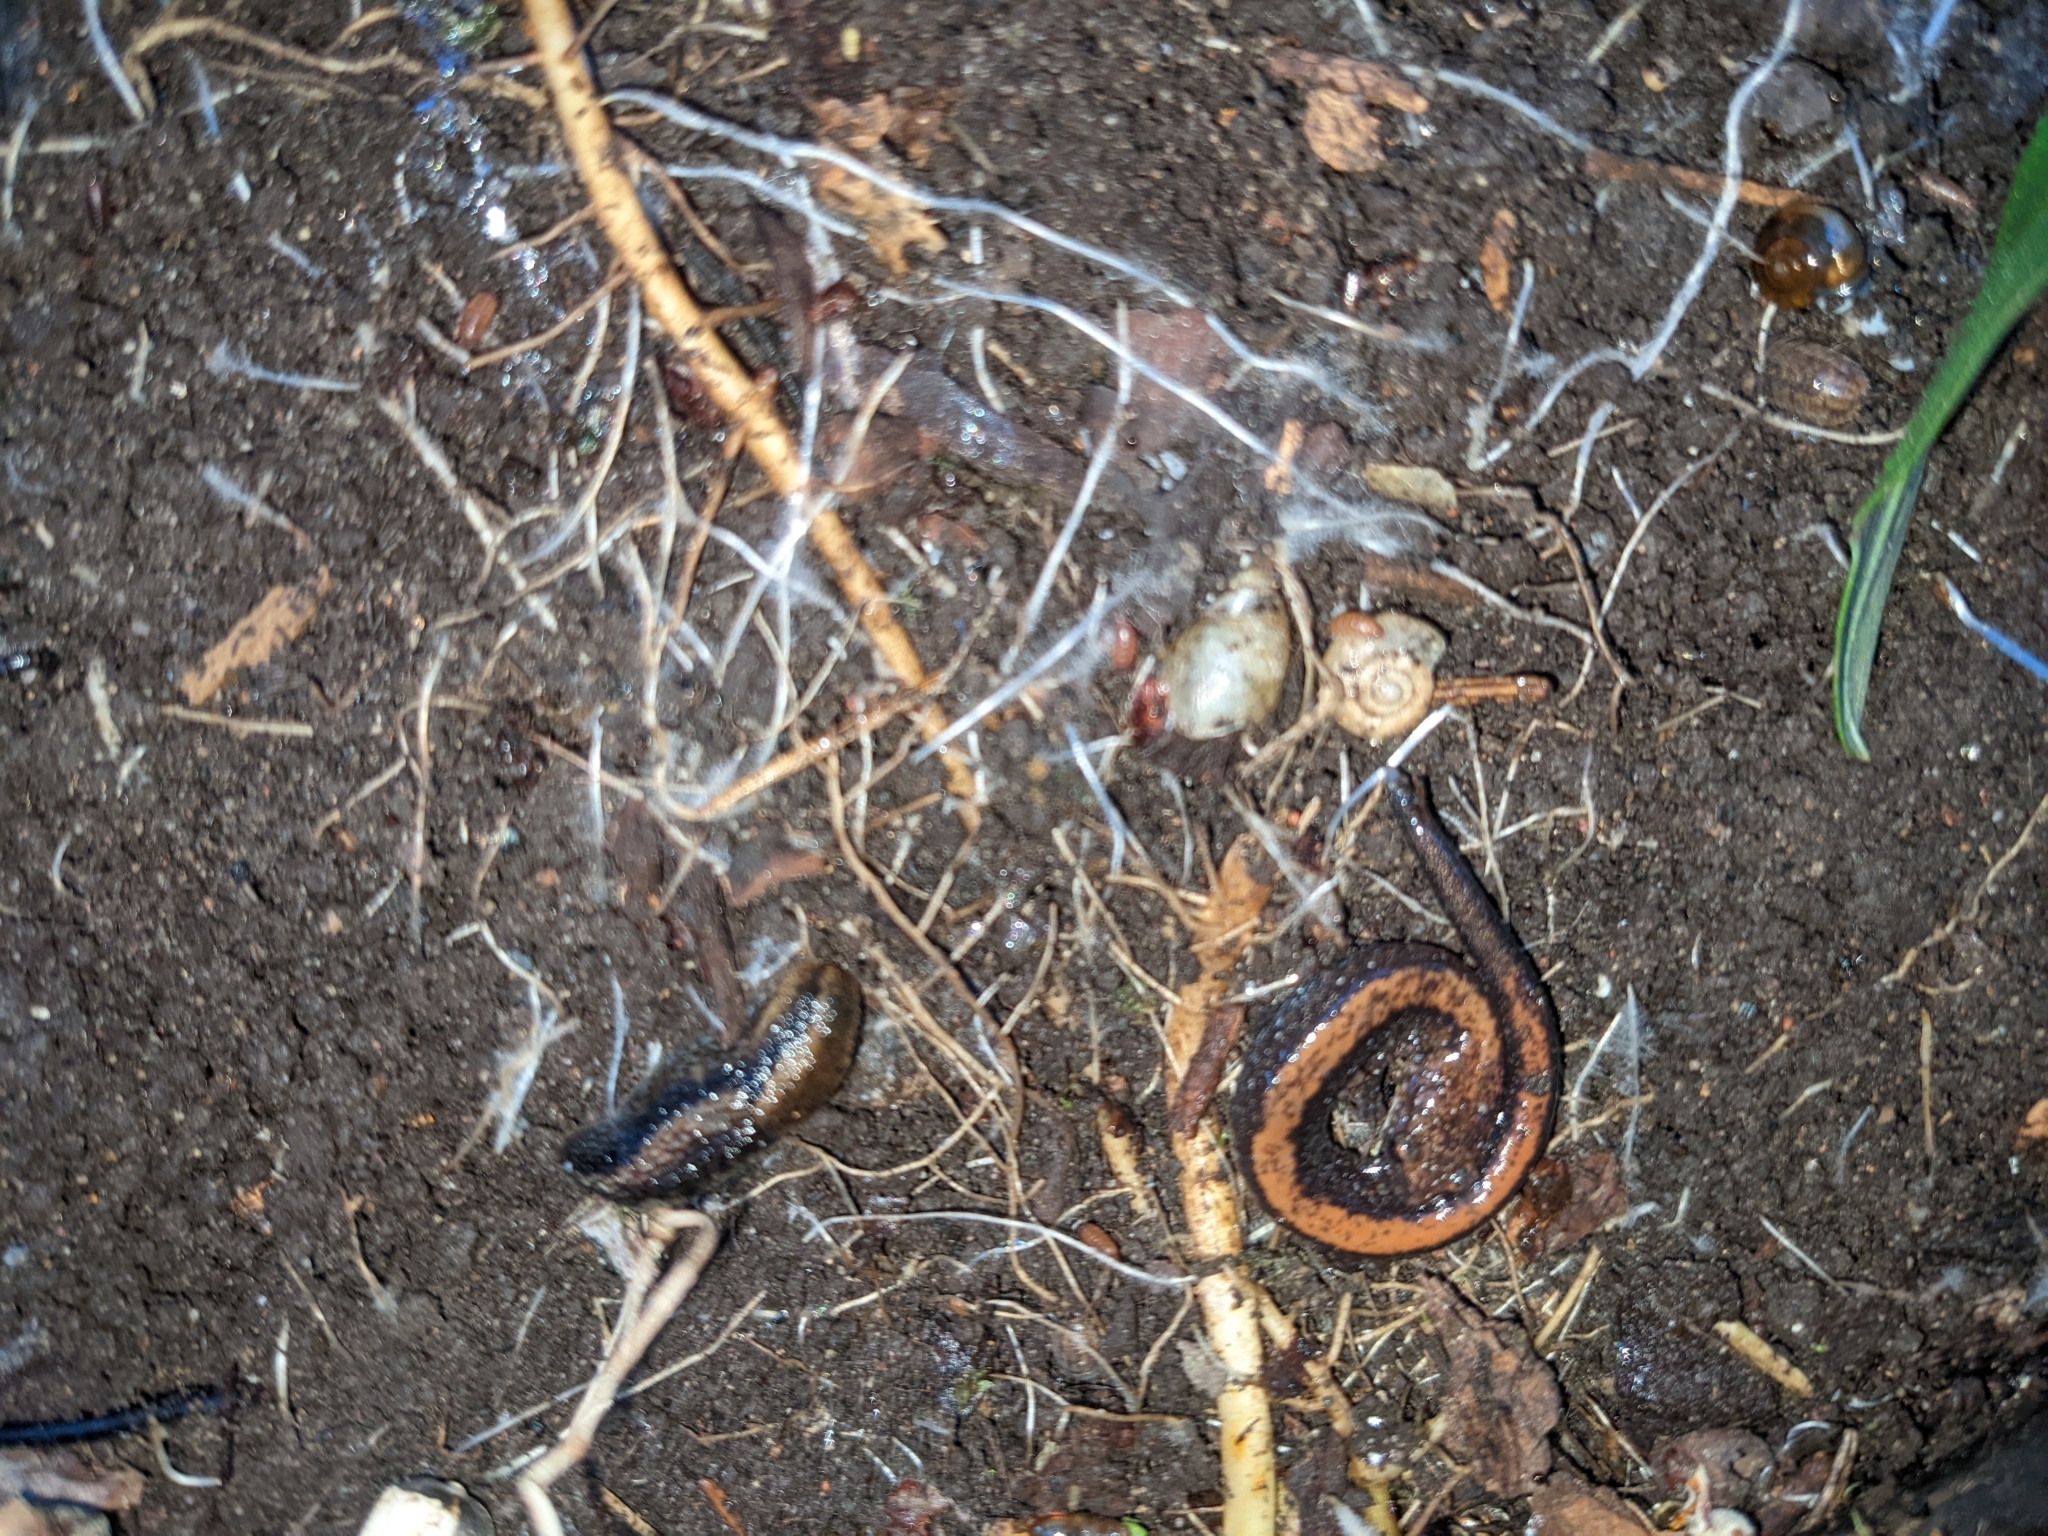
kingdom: Animalia
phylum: Chordata
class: Amphibia
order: Caudata
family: Plethodontidae
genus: Plethodon
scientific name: Plethodon cinereus
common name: Redback salamander
